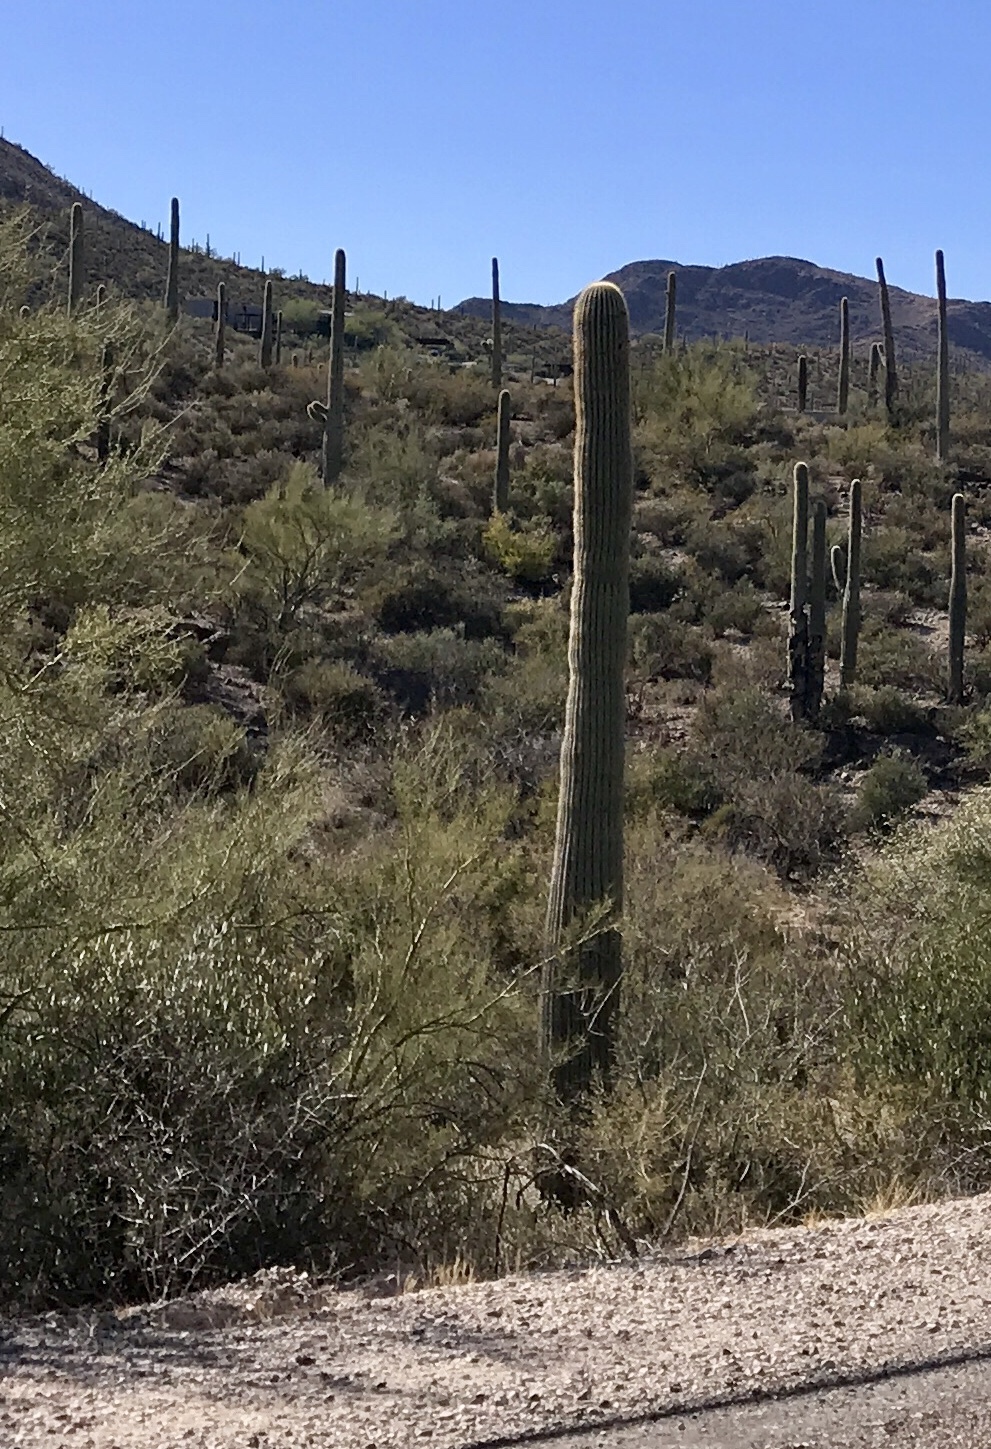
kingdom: Plantae
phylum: Tracheophyta
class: Magnoliopsida
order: Caryophyllales
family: Cactaceae
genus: Carnegiea
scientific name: Carnegiea gigantea
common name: Saguaro
